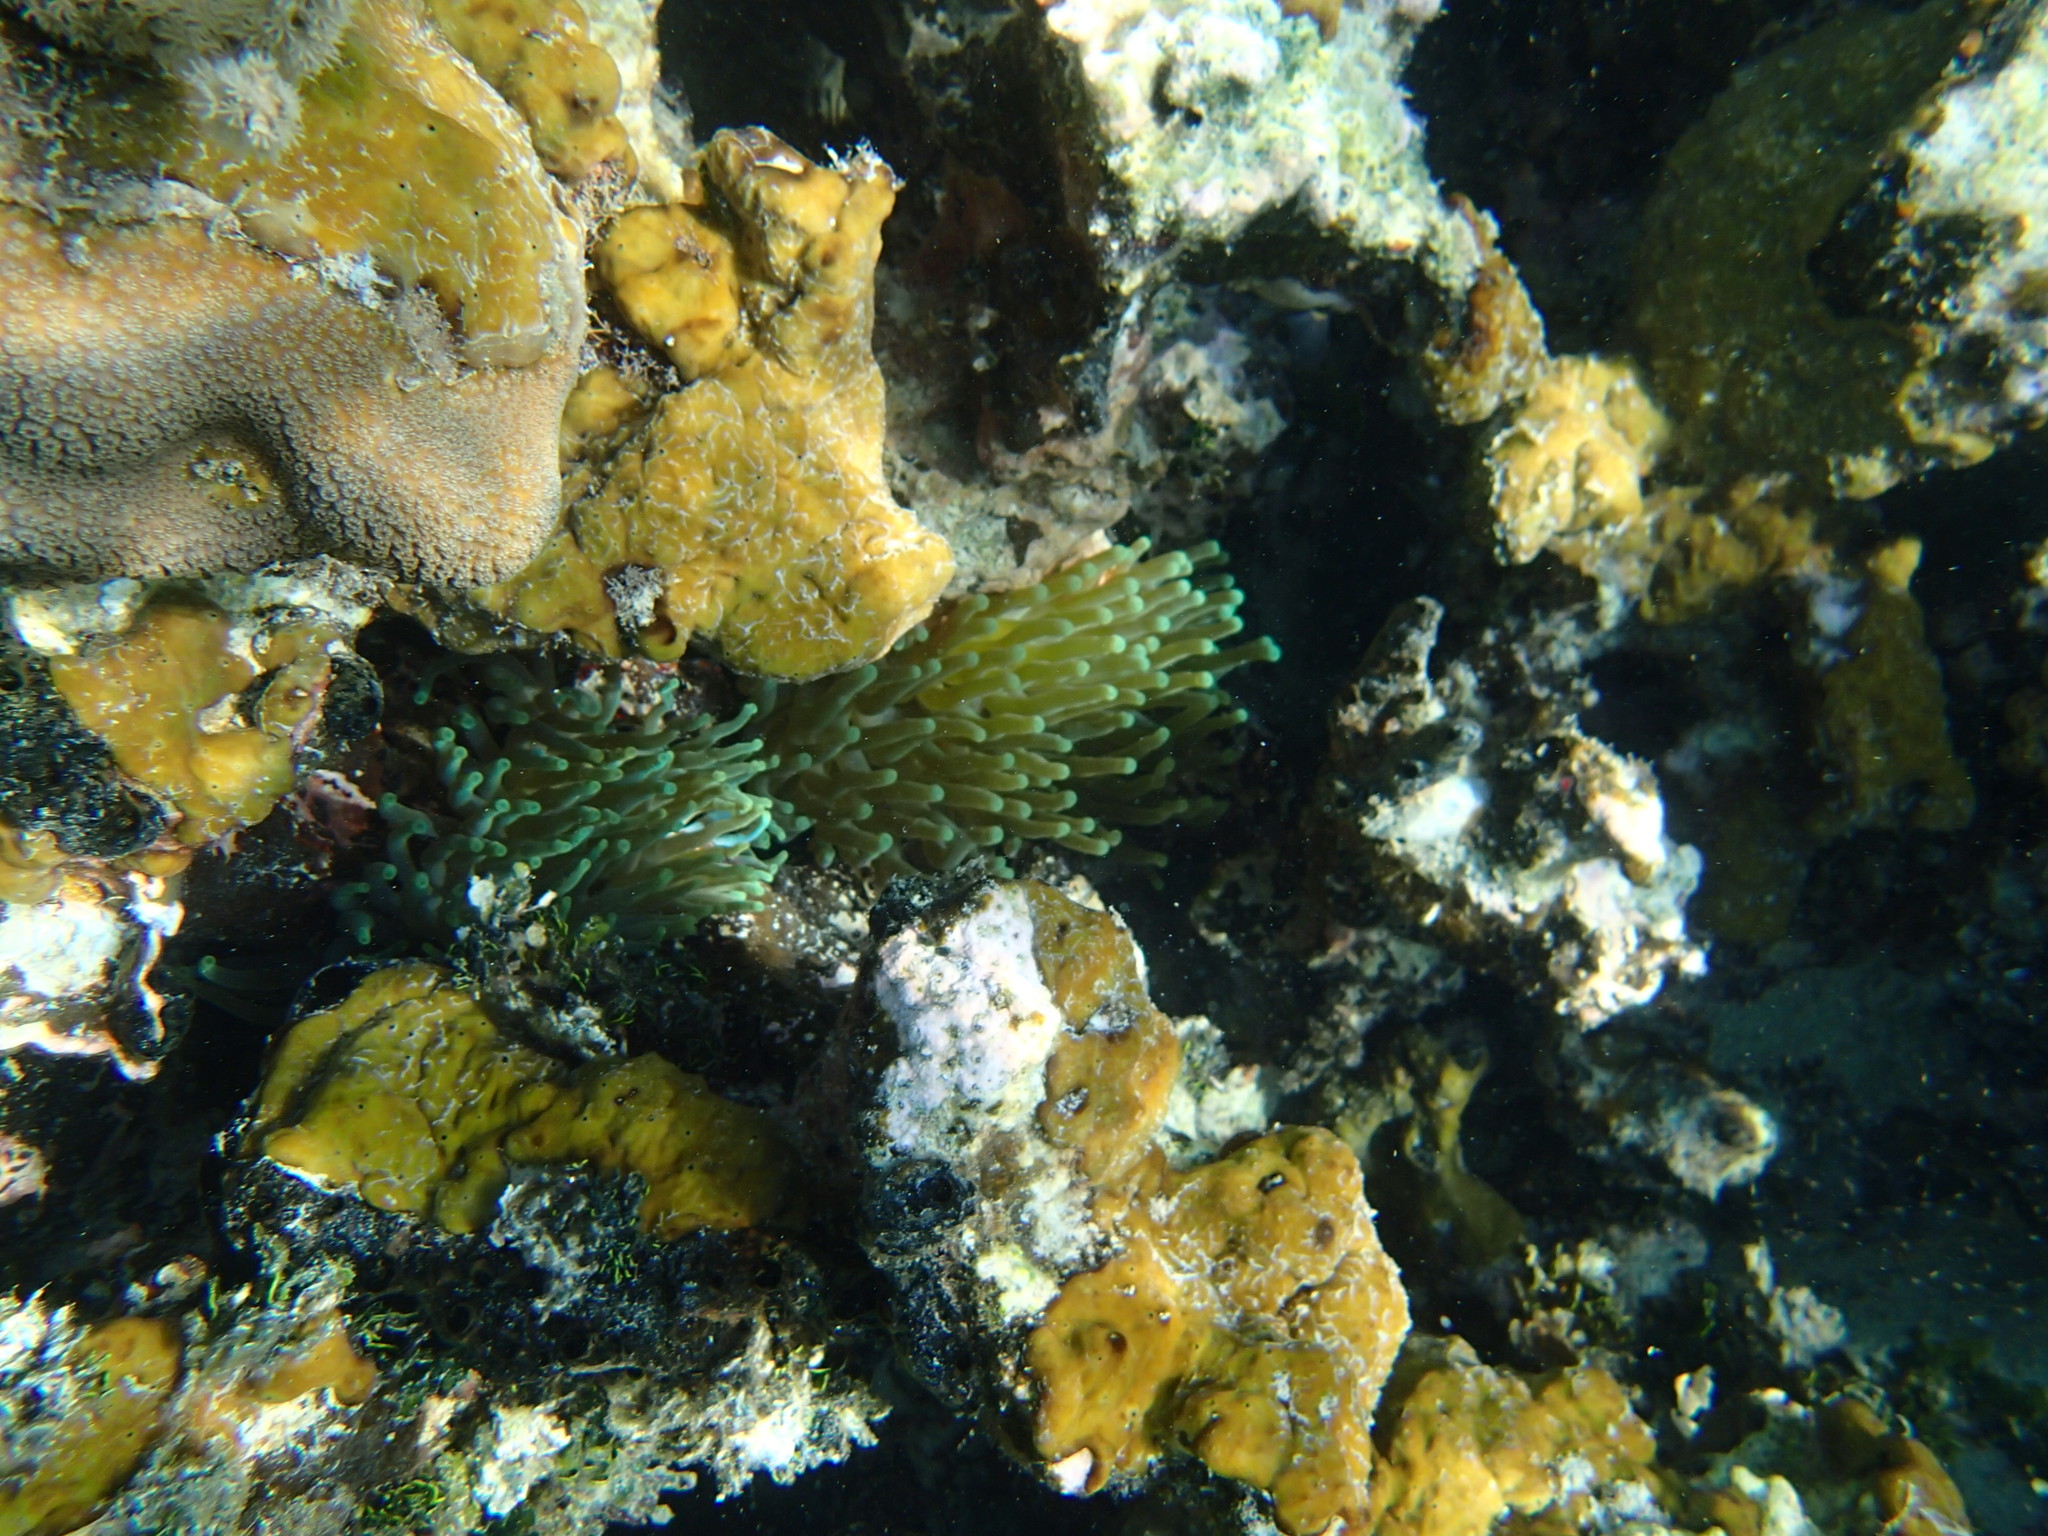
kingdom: Animalia
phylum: Cnidaria
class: Anthozoa
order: Actiniaria
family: Actiniidae
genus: Condylactis
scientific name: Condylactis gigantea
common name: Giant caribbean anemone
